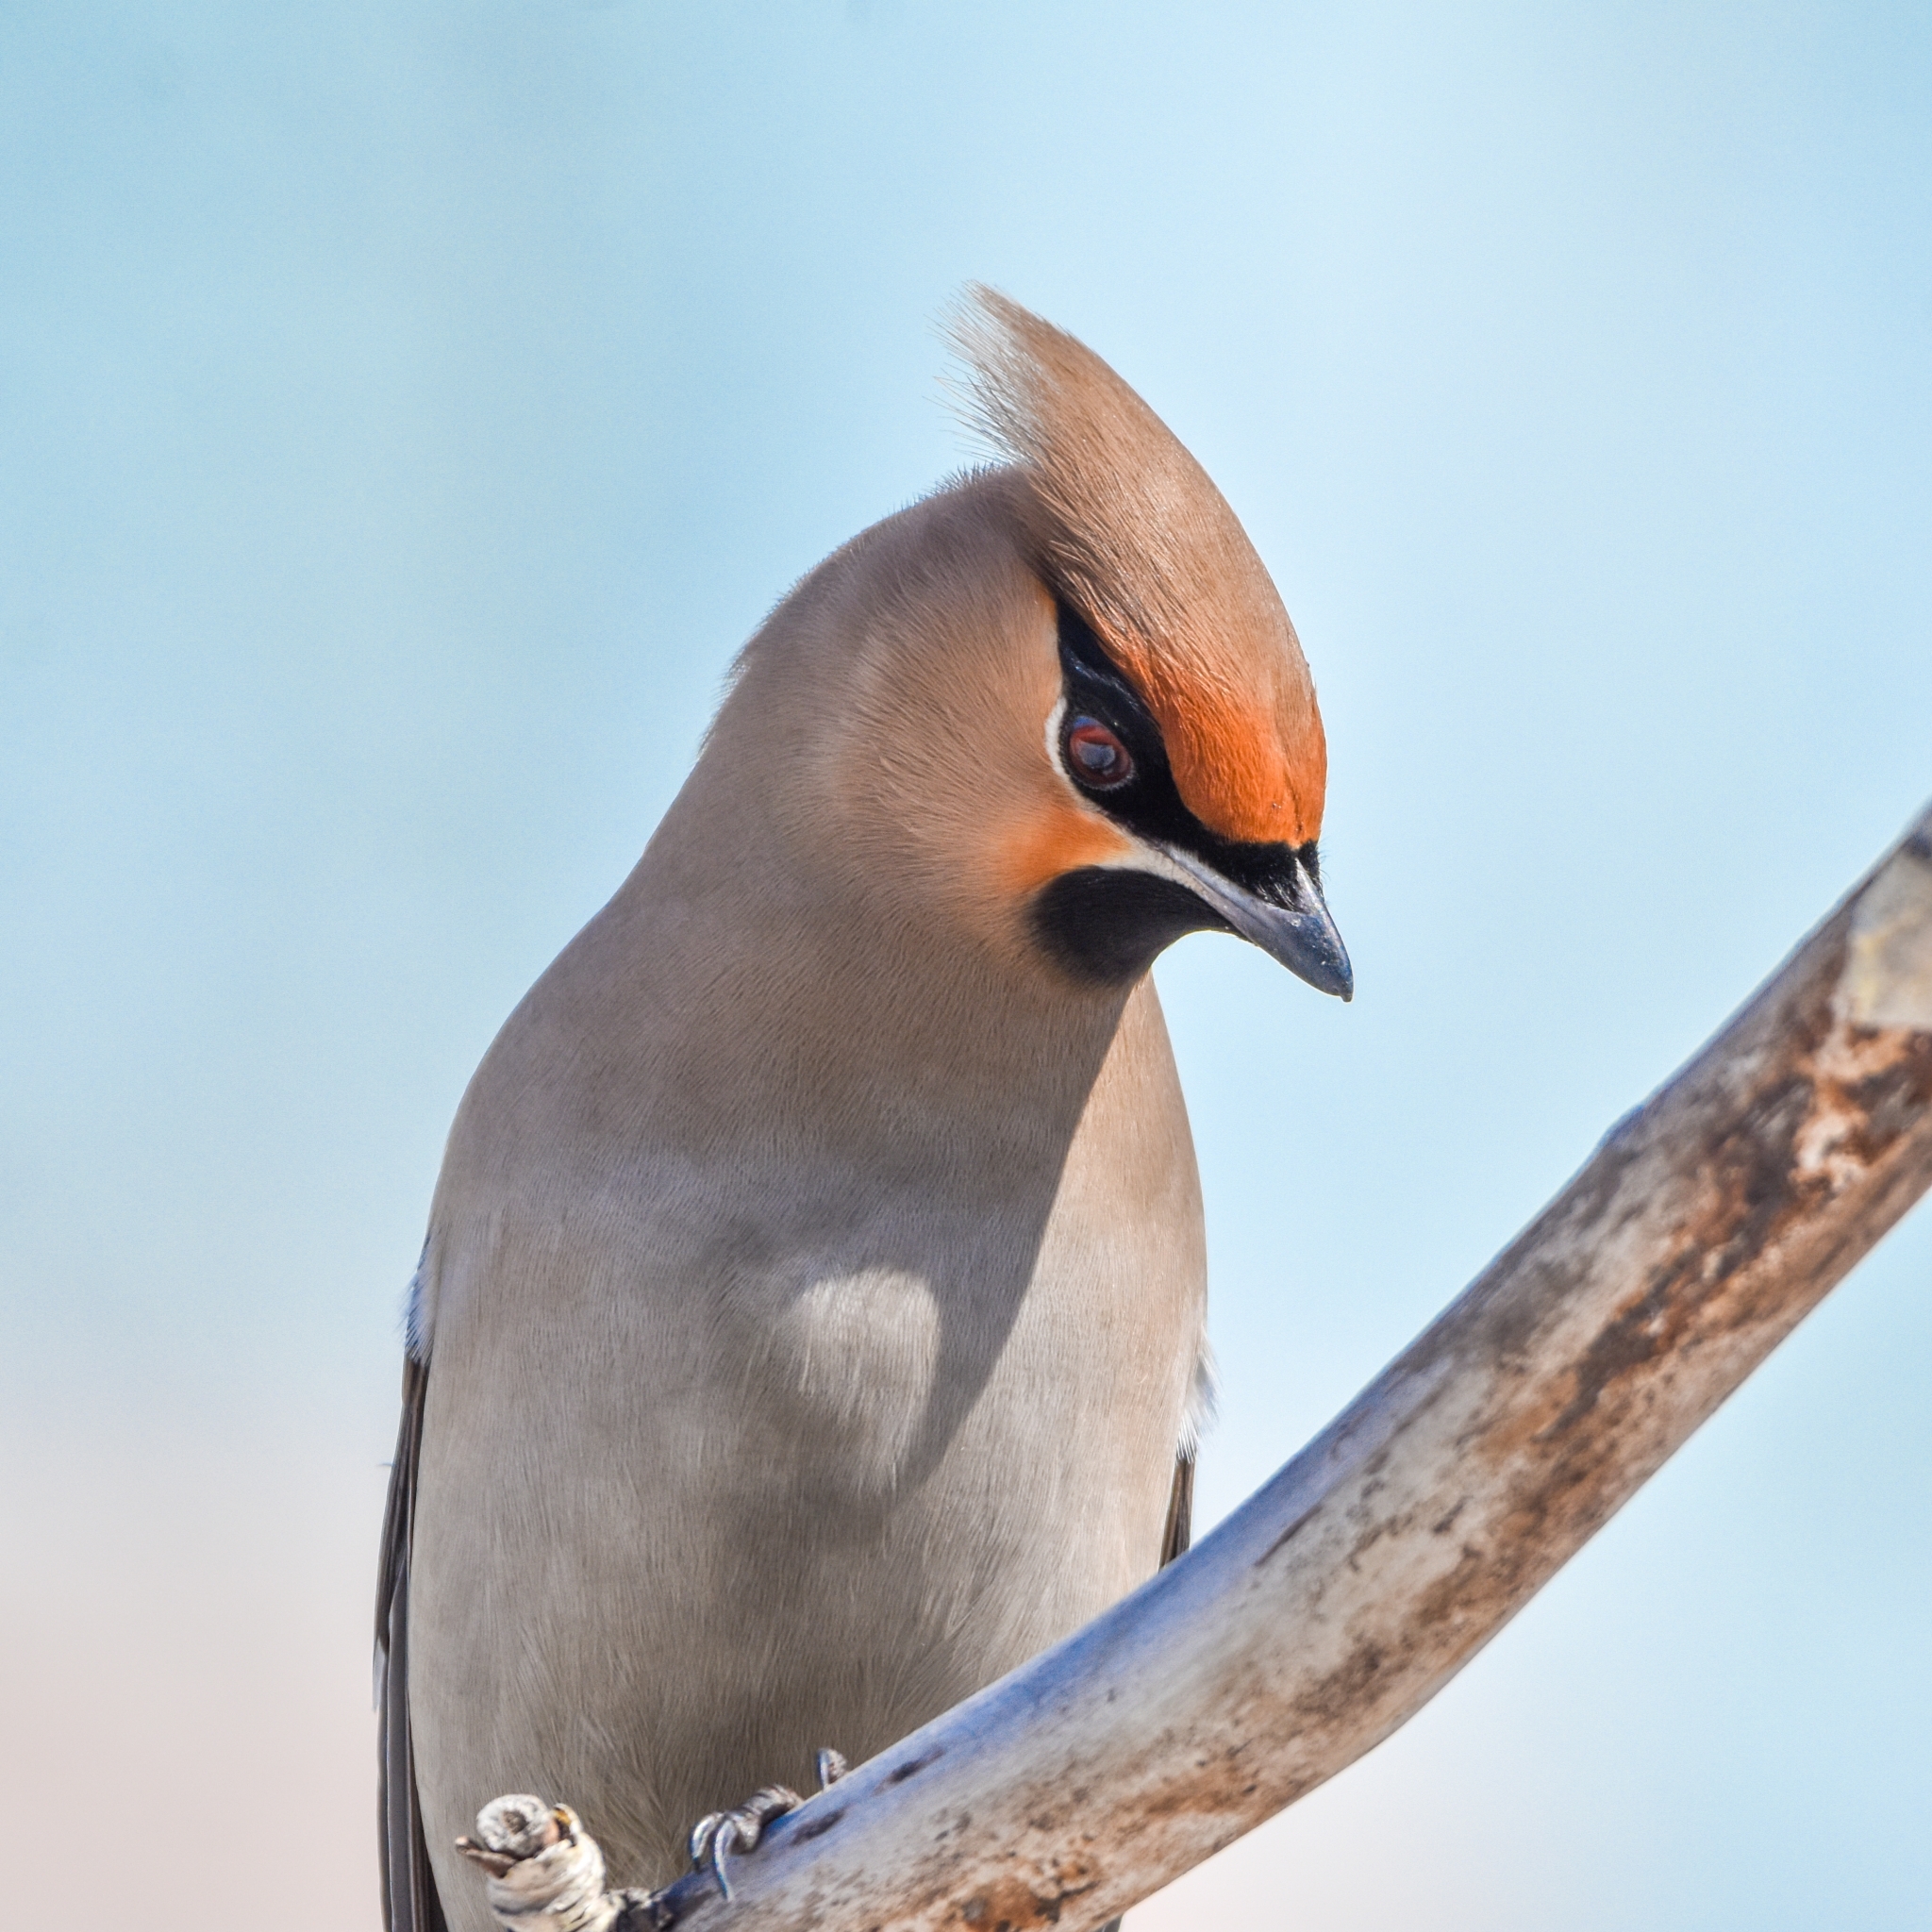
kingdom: Animalia
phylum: Chordata
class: Aves
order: Passeriformes
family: Bombycillidae
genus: Bombycilla
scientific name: Bombycilla garrulus
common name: Bohemian waxwing
